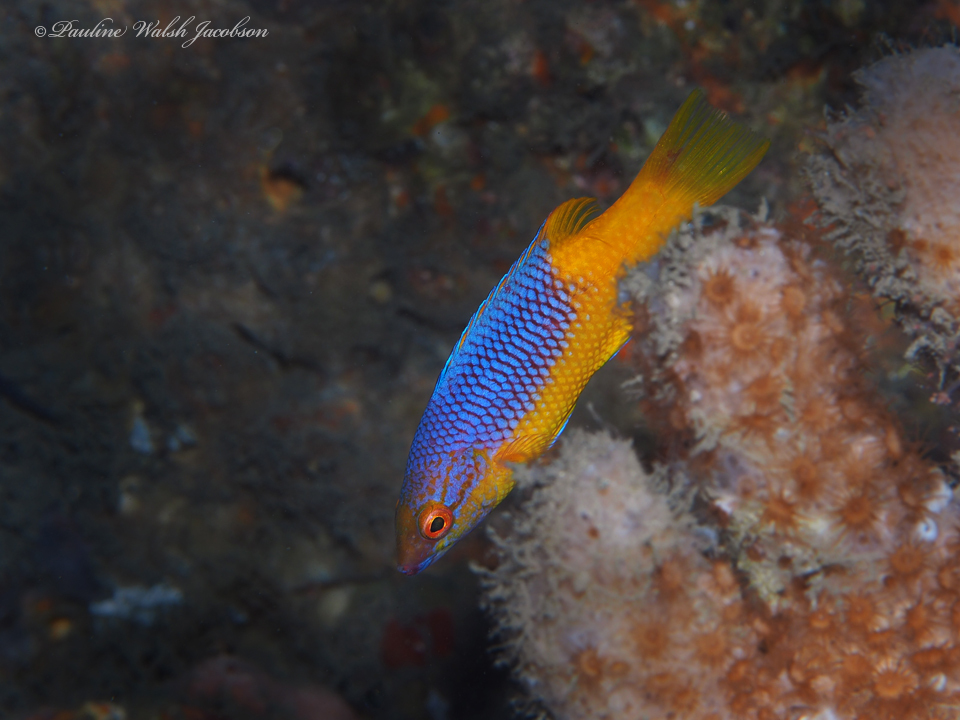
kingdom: Animalia
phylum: Chordata
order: Perciformes
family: Labridae
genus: Bodianus
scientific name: Bodianus rufus
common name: Spanish hogfish
